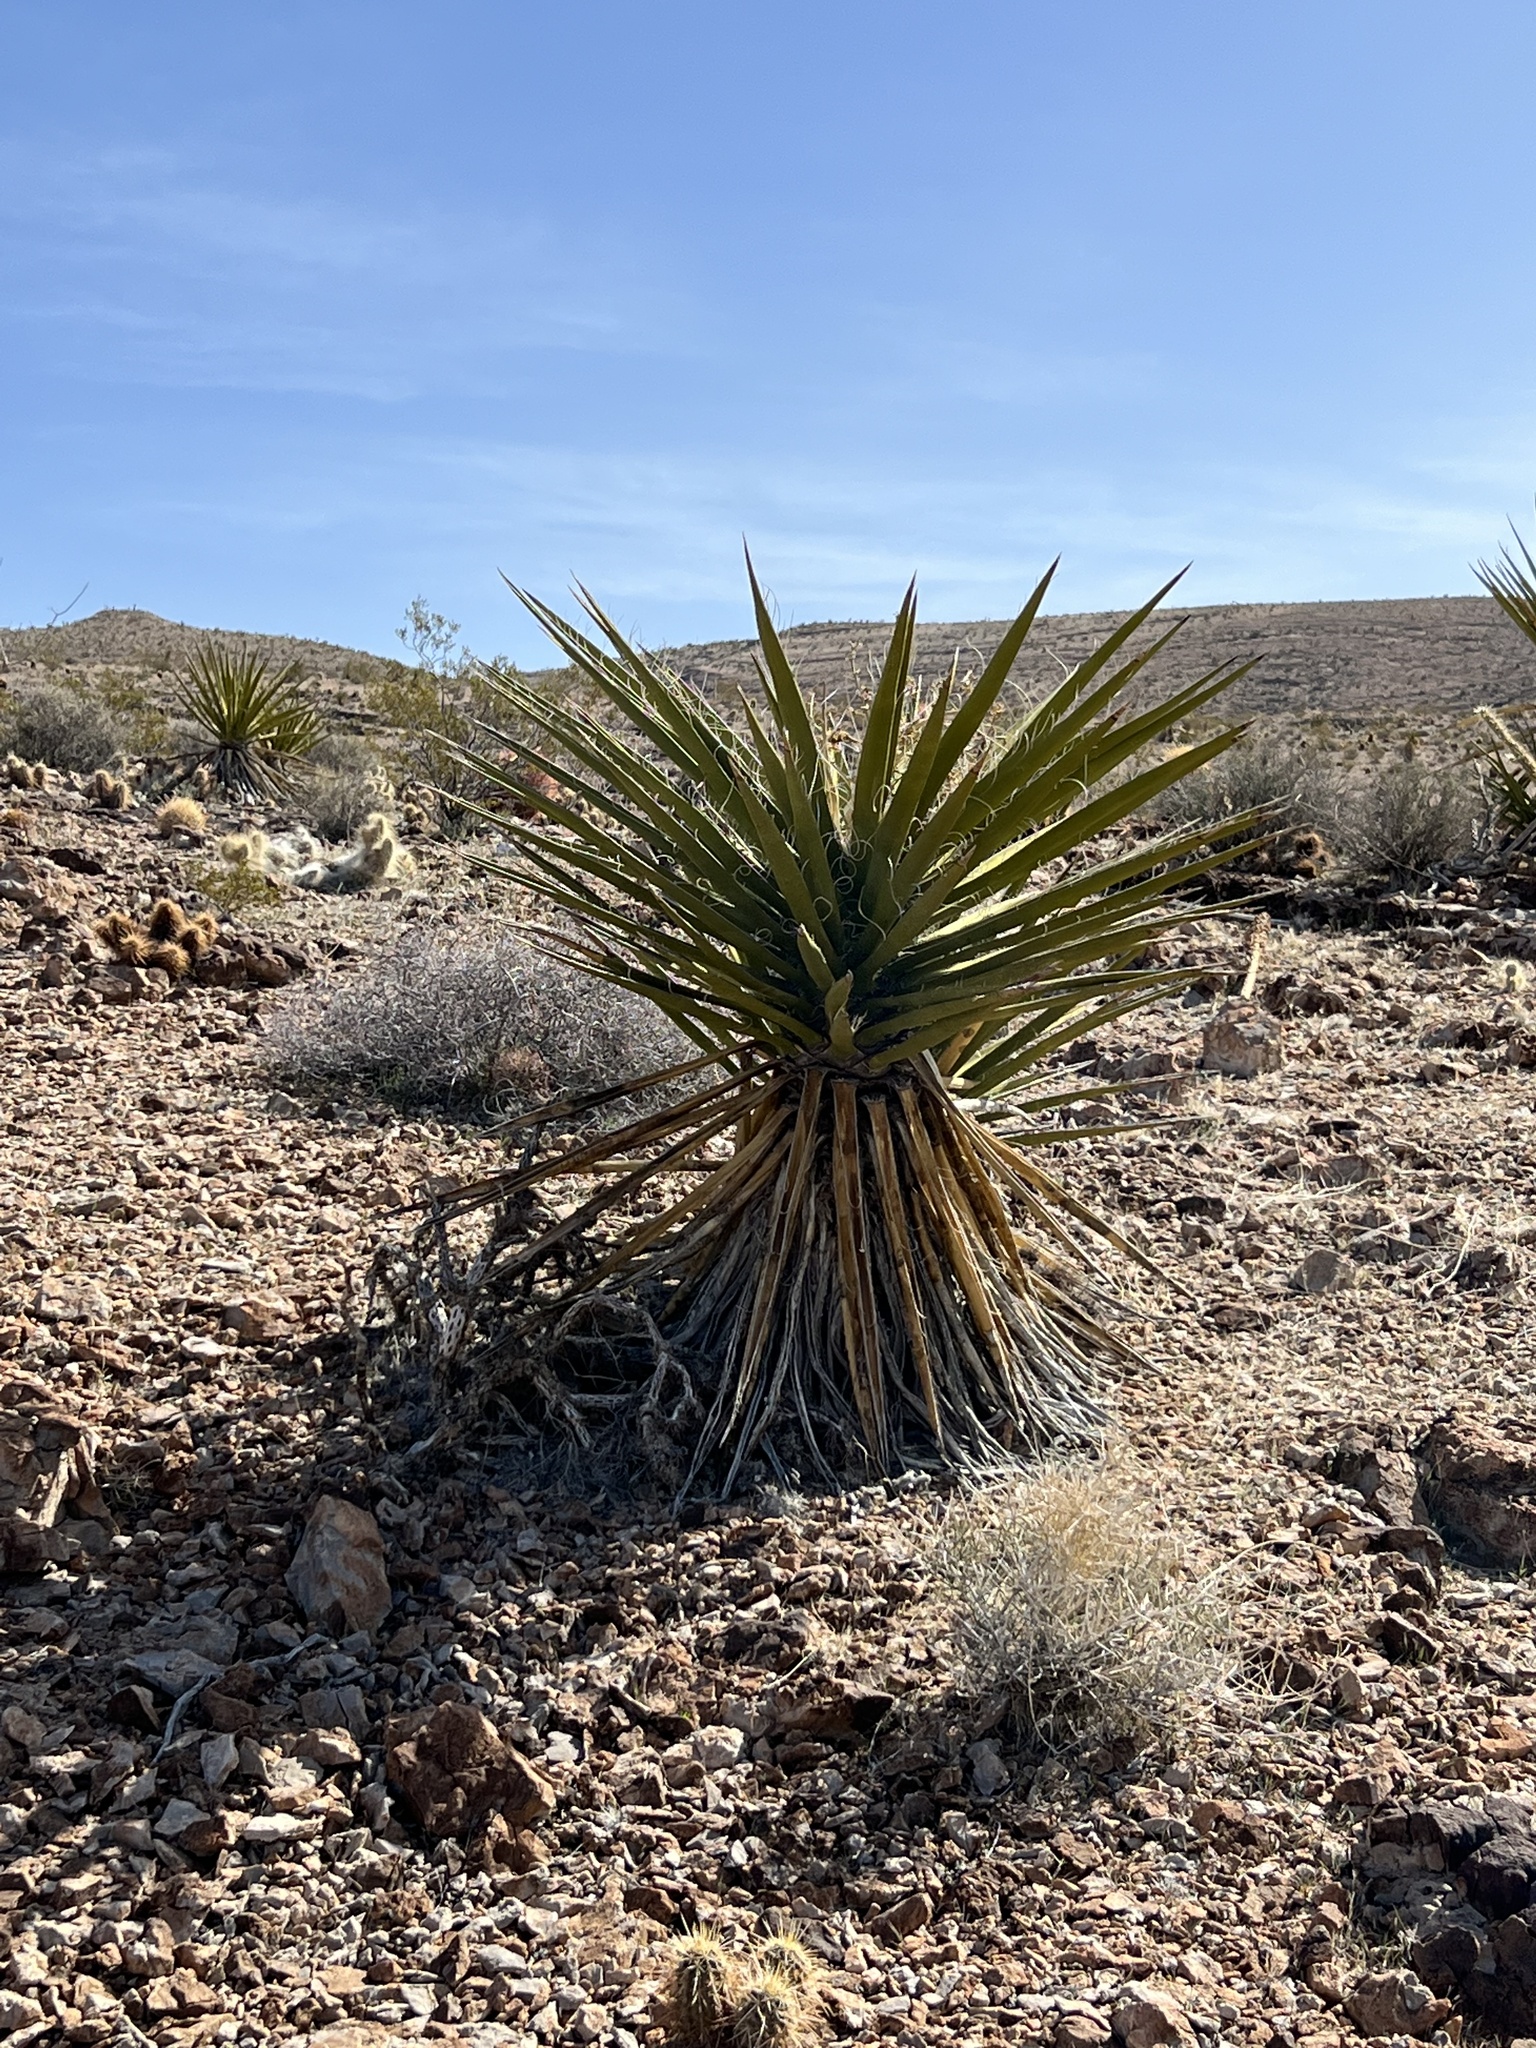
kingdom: Plantae
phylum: Tracheophyta
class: Liliopsida
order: Asparagales
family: Asparagaceae
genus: Yucca
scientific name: Yucca schidigera
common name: Mojave yucca
